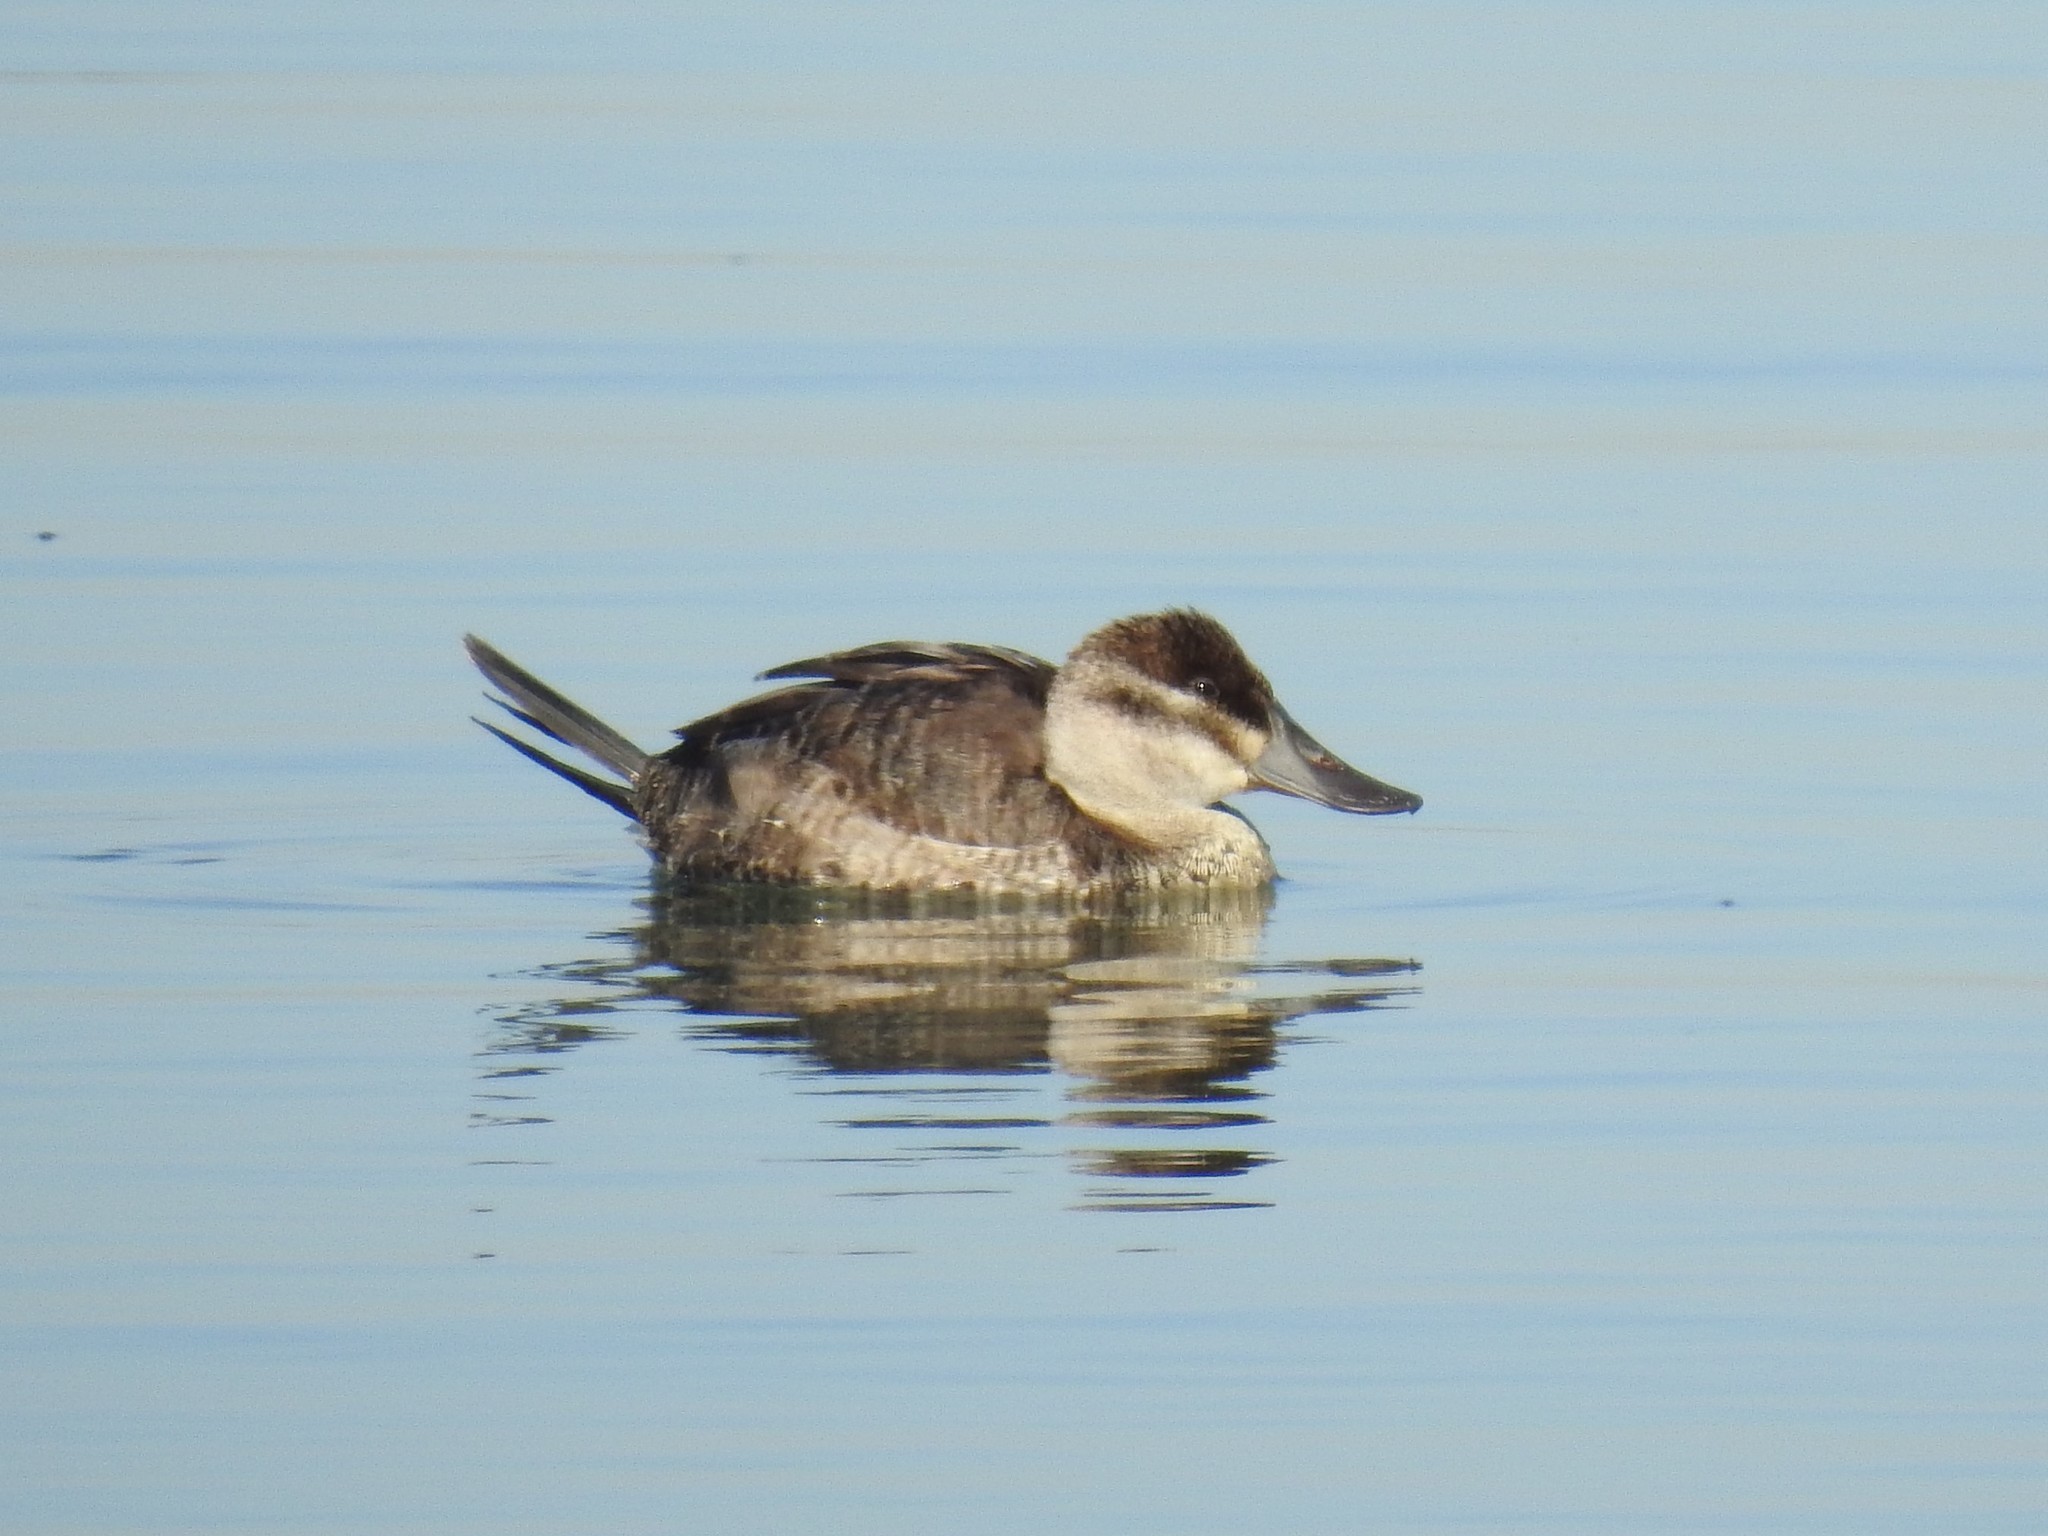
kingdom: Animalia
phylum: Chordata
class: Aves
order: Anseriformes
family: Anatidae
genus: Oxyura
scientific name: Oxyura jamaicensis
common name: Ruddy duck
